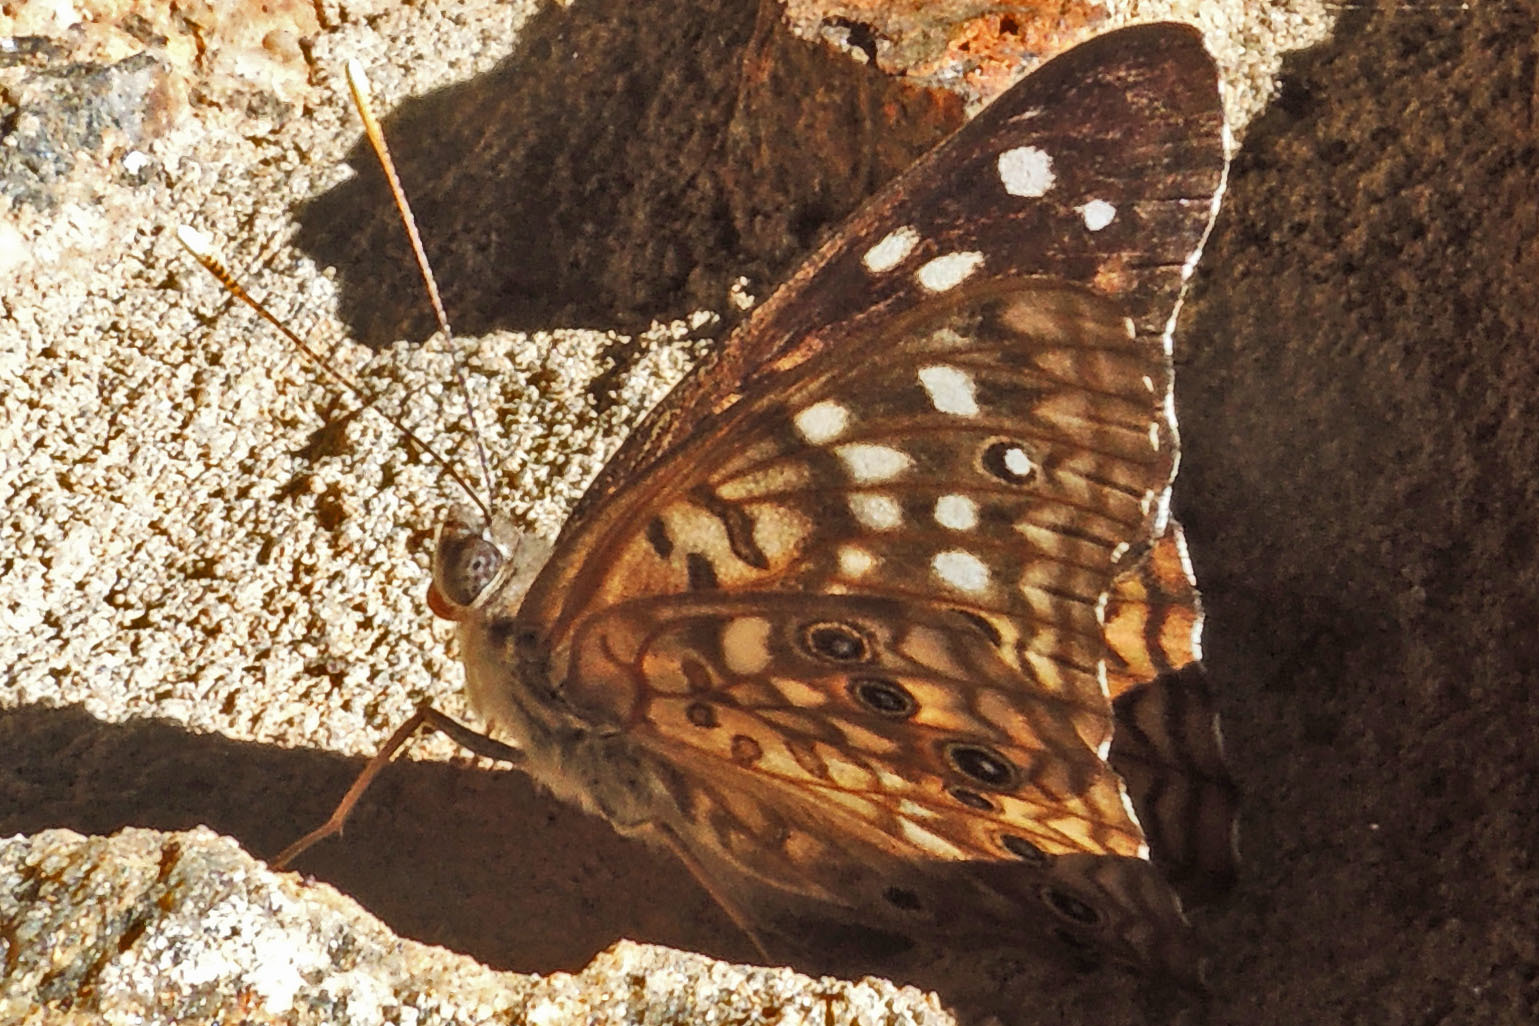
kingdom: Animalia
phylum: Arthropoda
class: Insecta
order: Lepidoptera
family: Nymphalidae
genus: Asterocampa
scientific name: Asterocampa celtis
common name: Hackberry emperor
